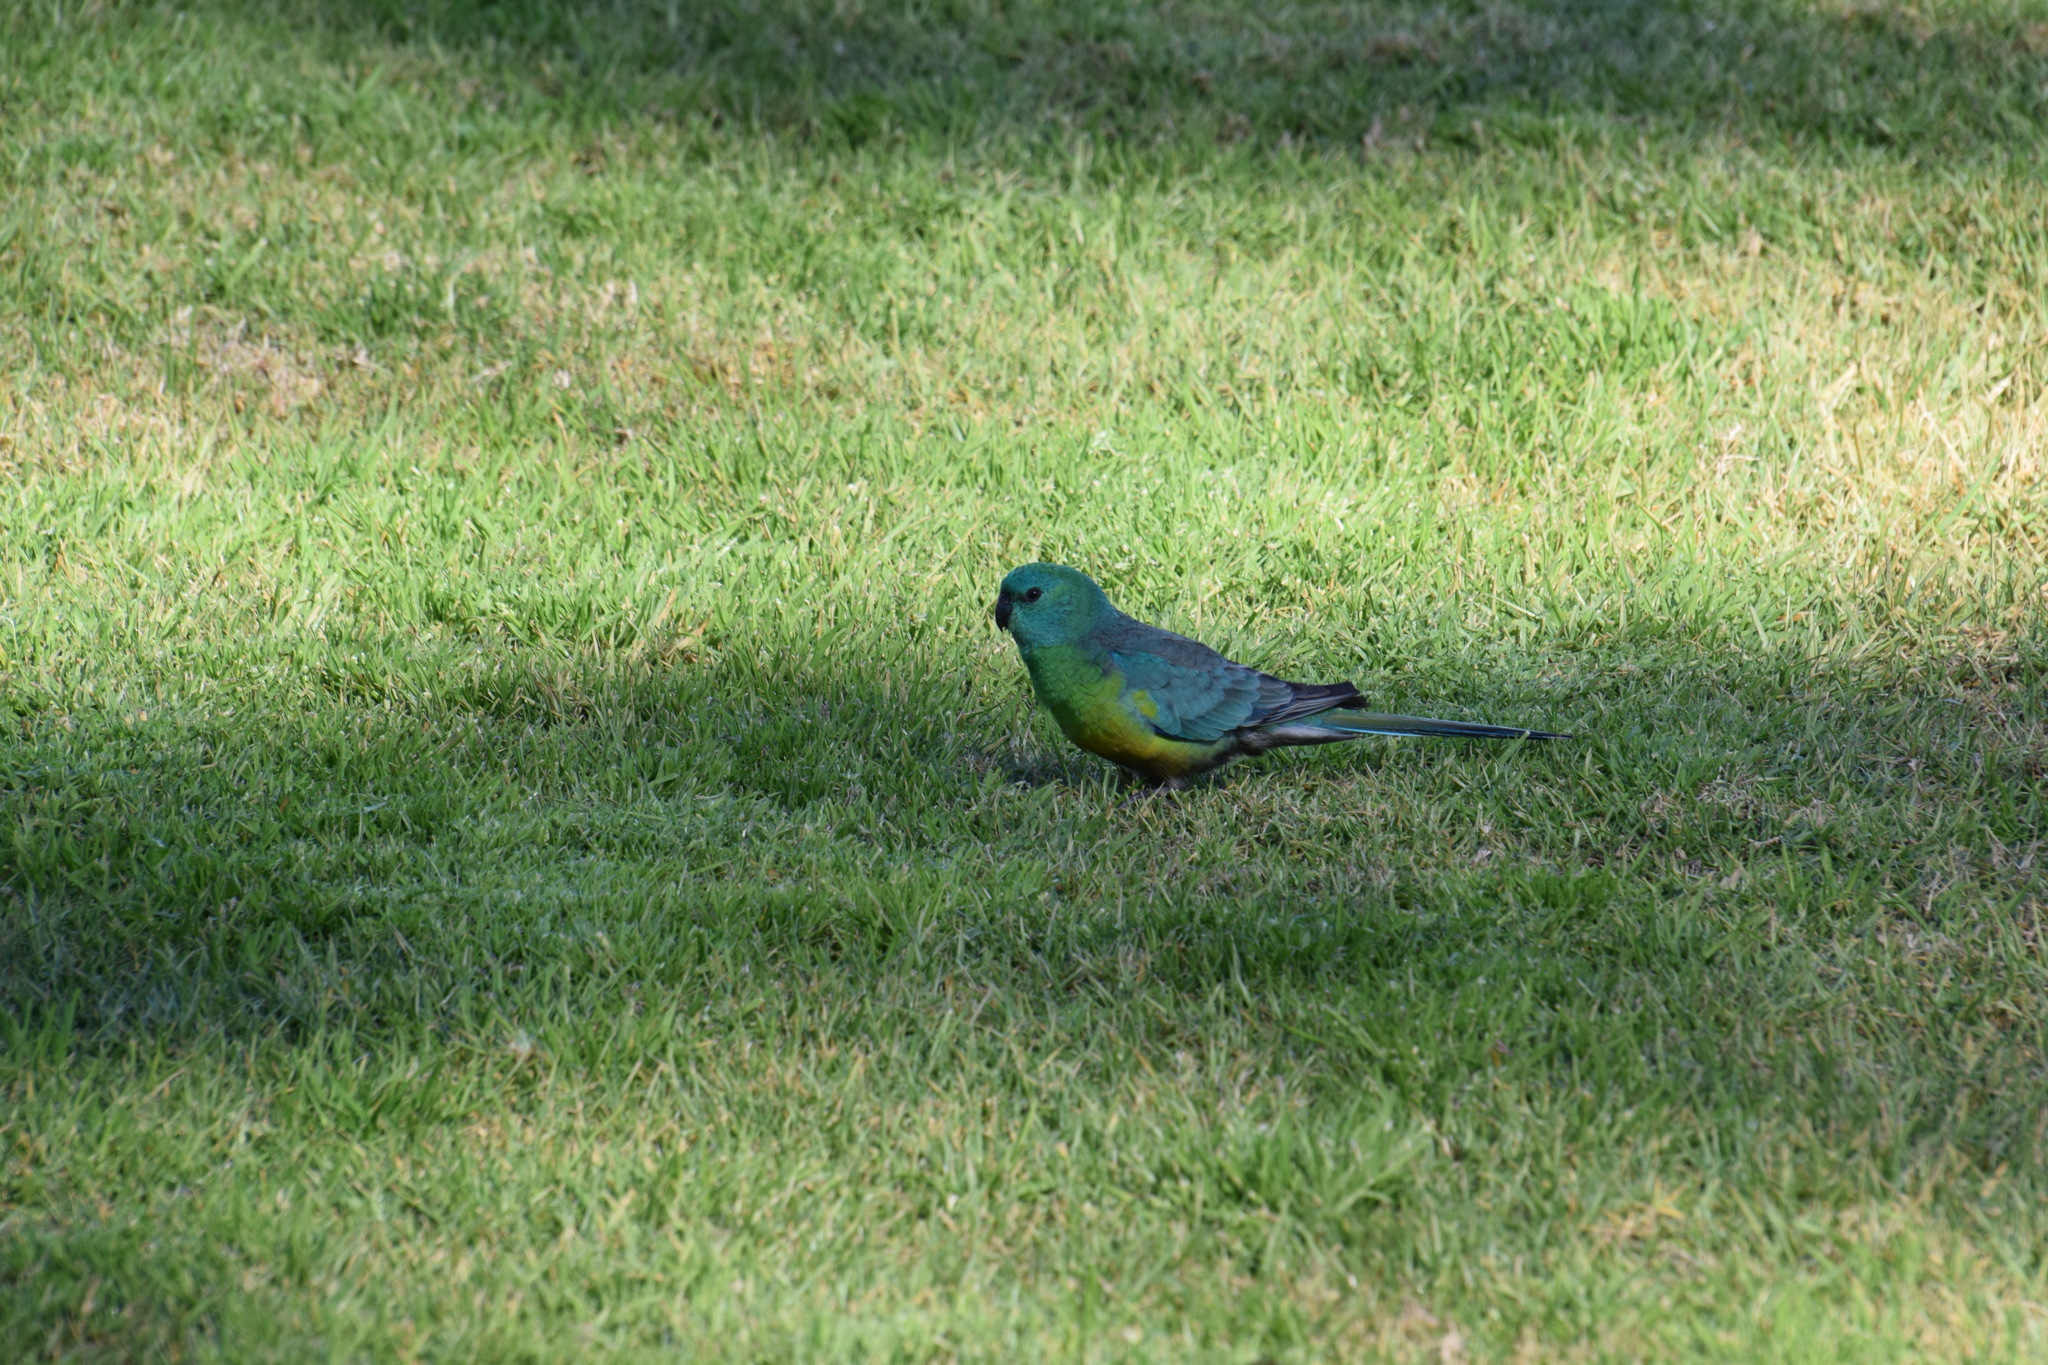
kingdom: Animalia
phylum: Chordata
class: Aves
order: Psittaciformes
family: Psittacidae
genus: Psephotus
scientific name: Psephotus haematonotus
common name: Red-rumped parrot
